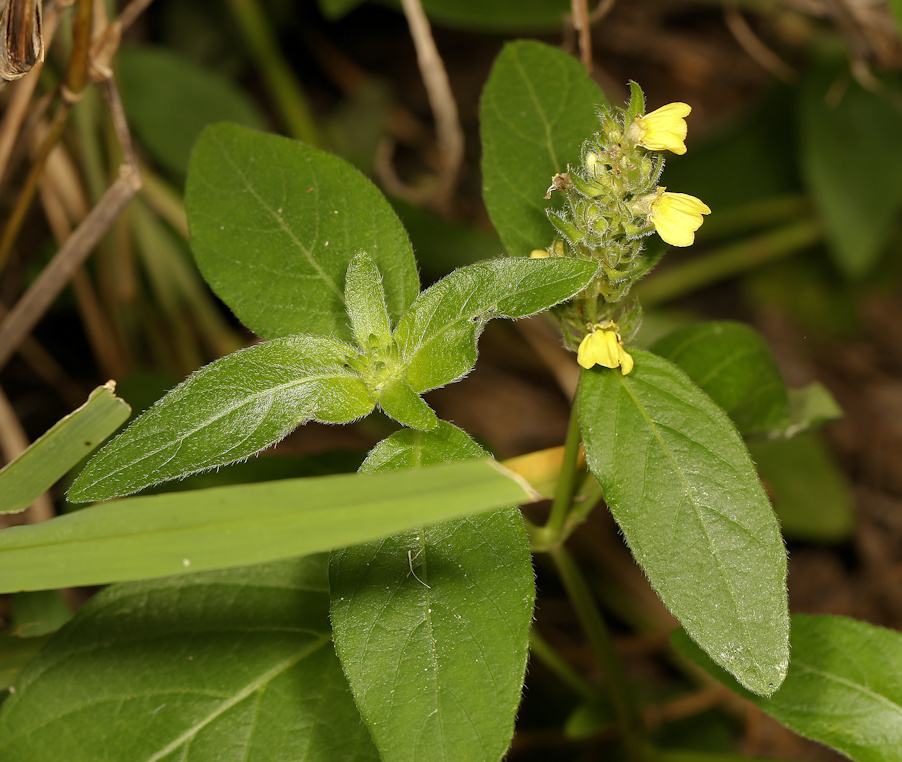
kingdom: Plantae
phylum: Tracheophyta
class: Magnoliopsida
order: Lamiales
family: Acanthaceae
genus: Justicia
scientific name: Justicia flava
